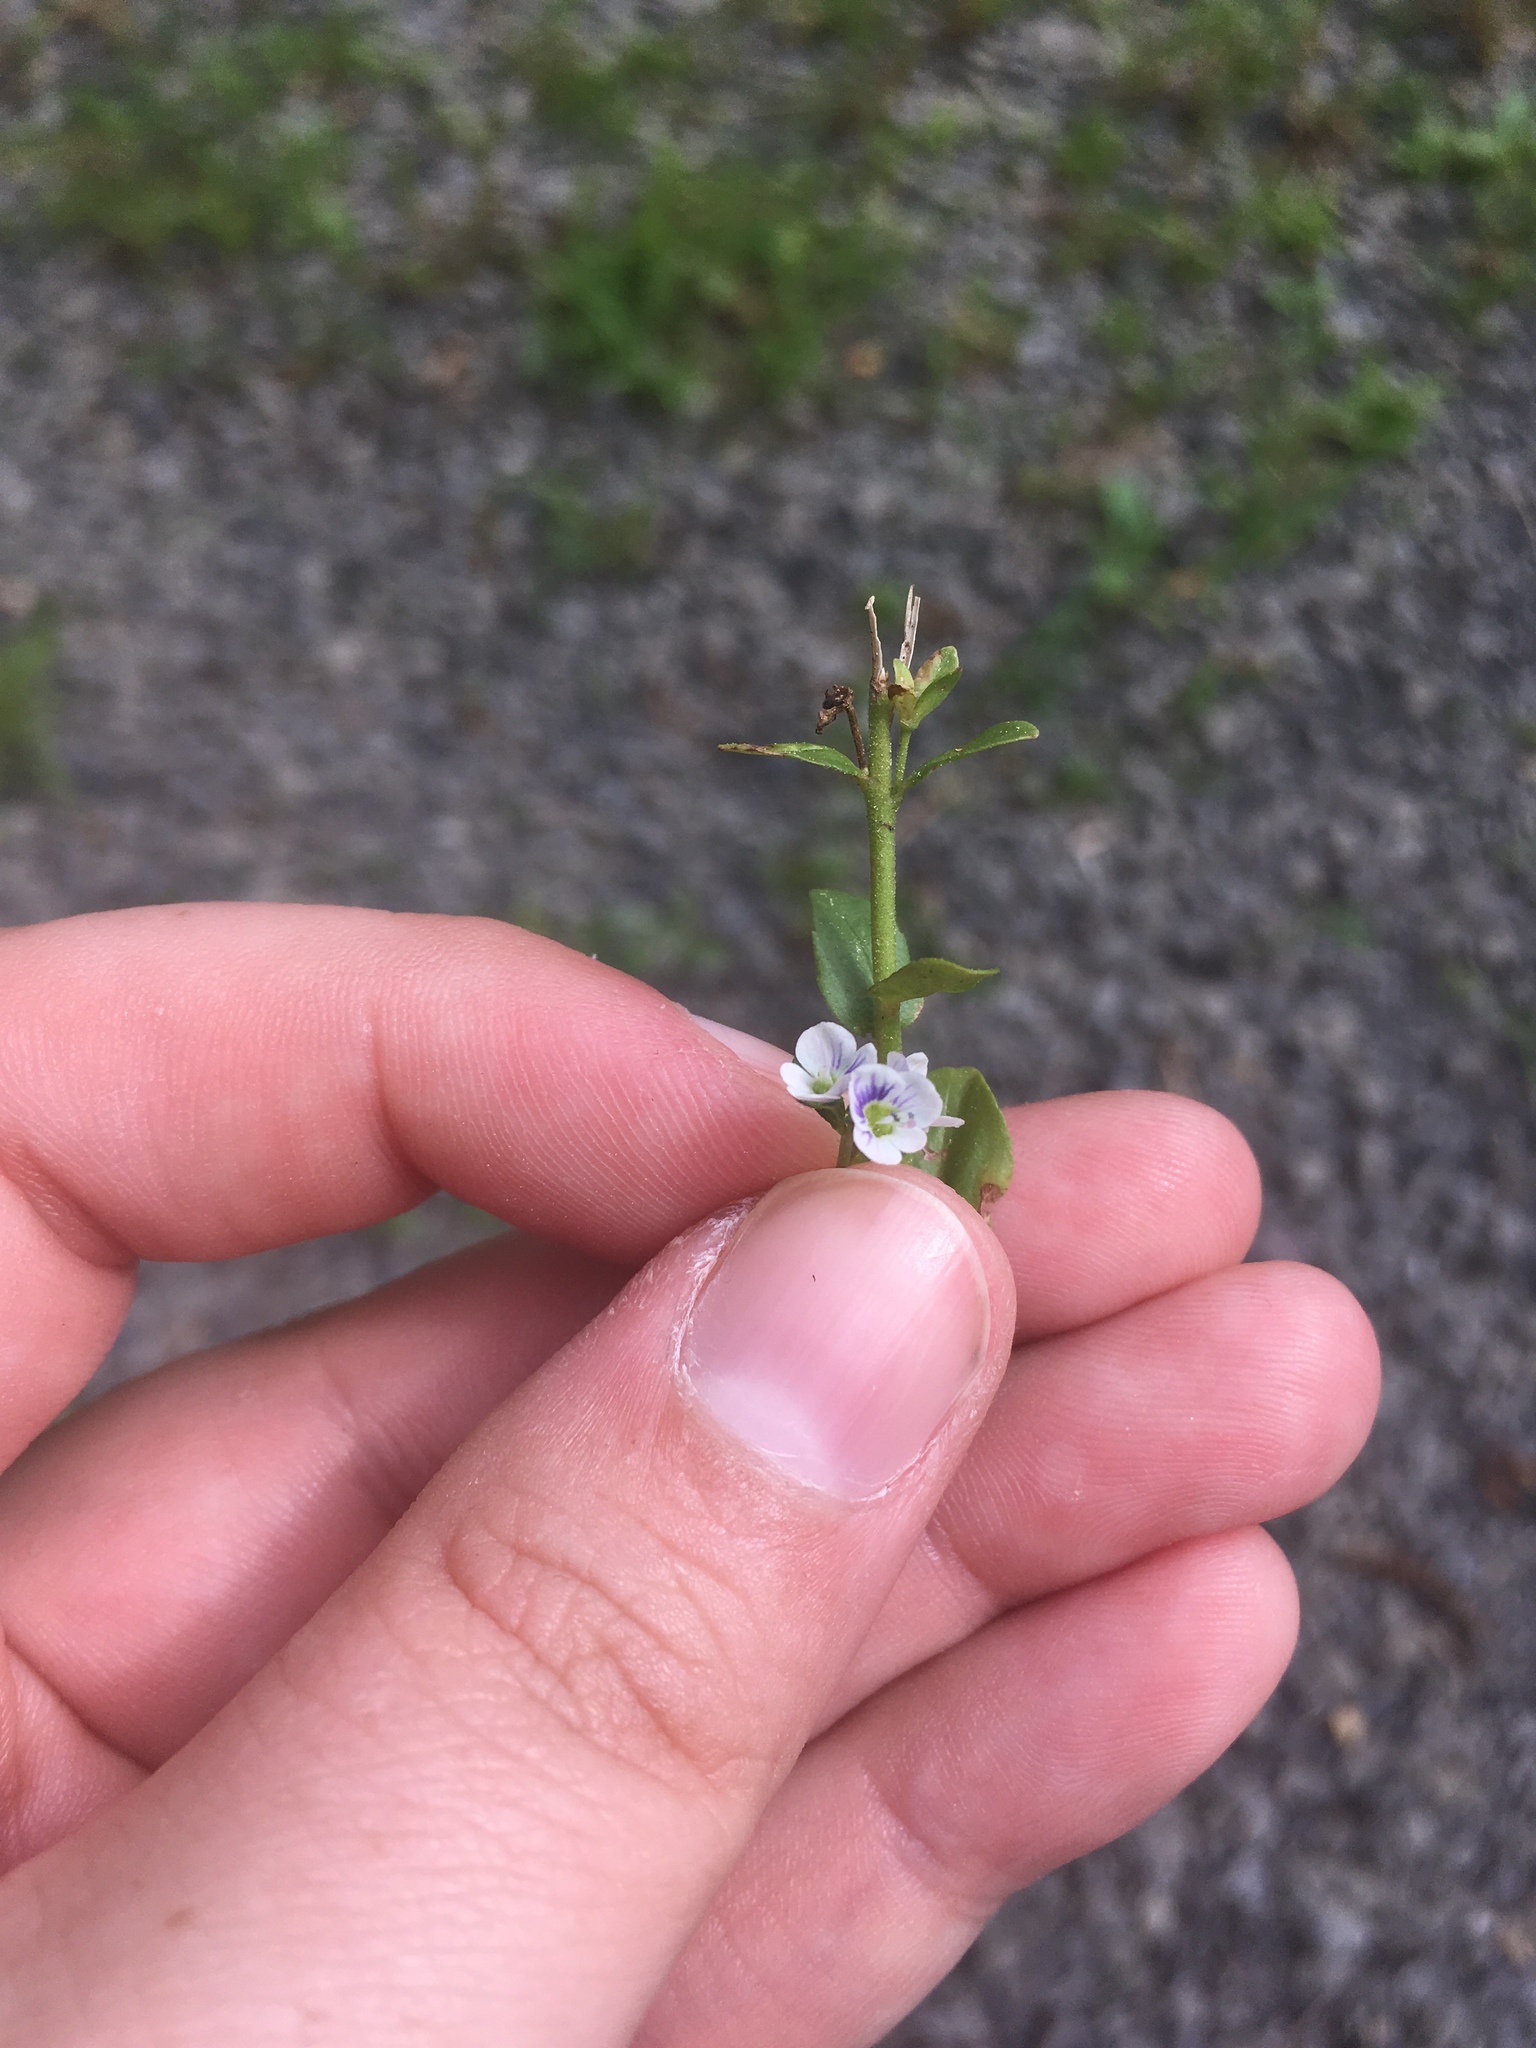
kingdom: Plantae
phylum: Tracheophyta
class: Magnoliopsida
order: Lamiales
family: Plantaginaceae
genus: Veronica
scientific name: Veronica serpyllifolia
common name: Thyme-leaved speedwell
